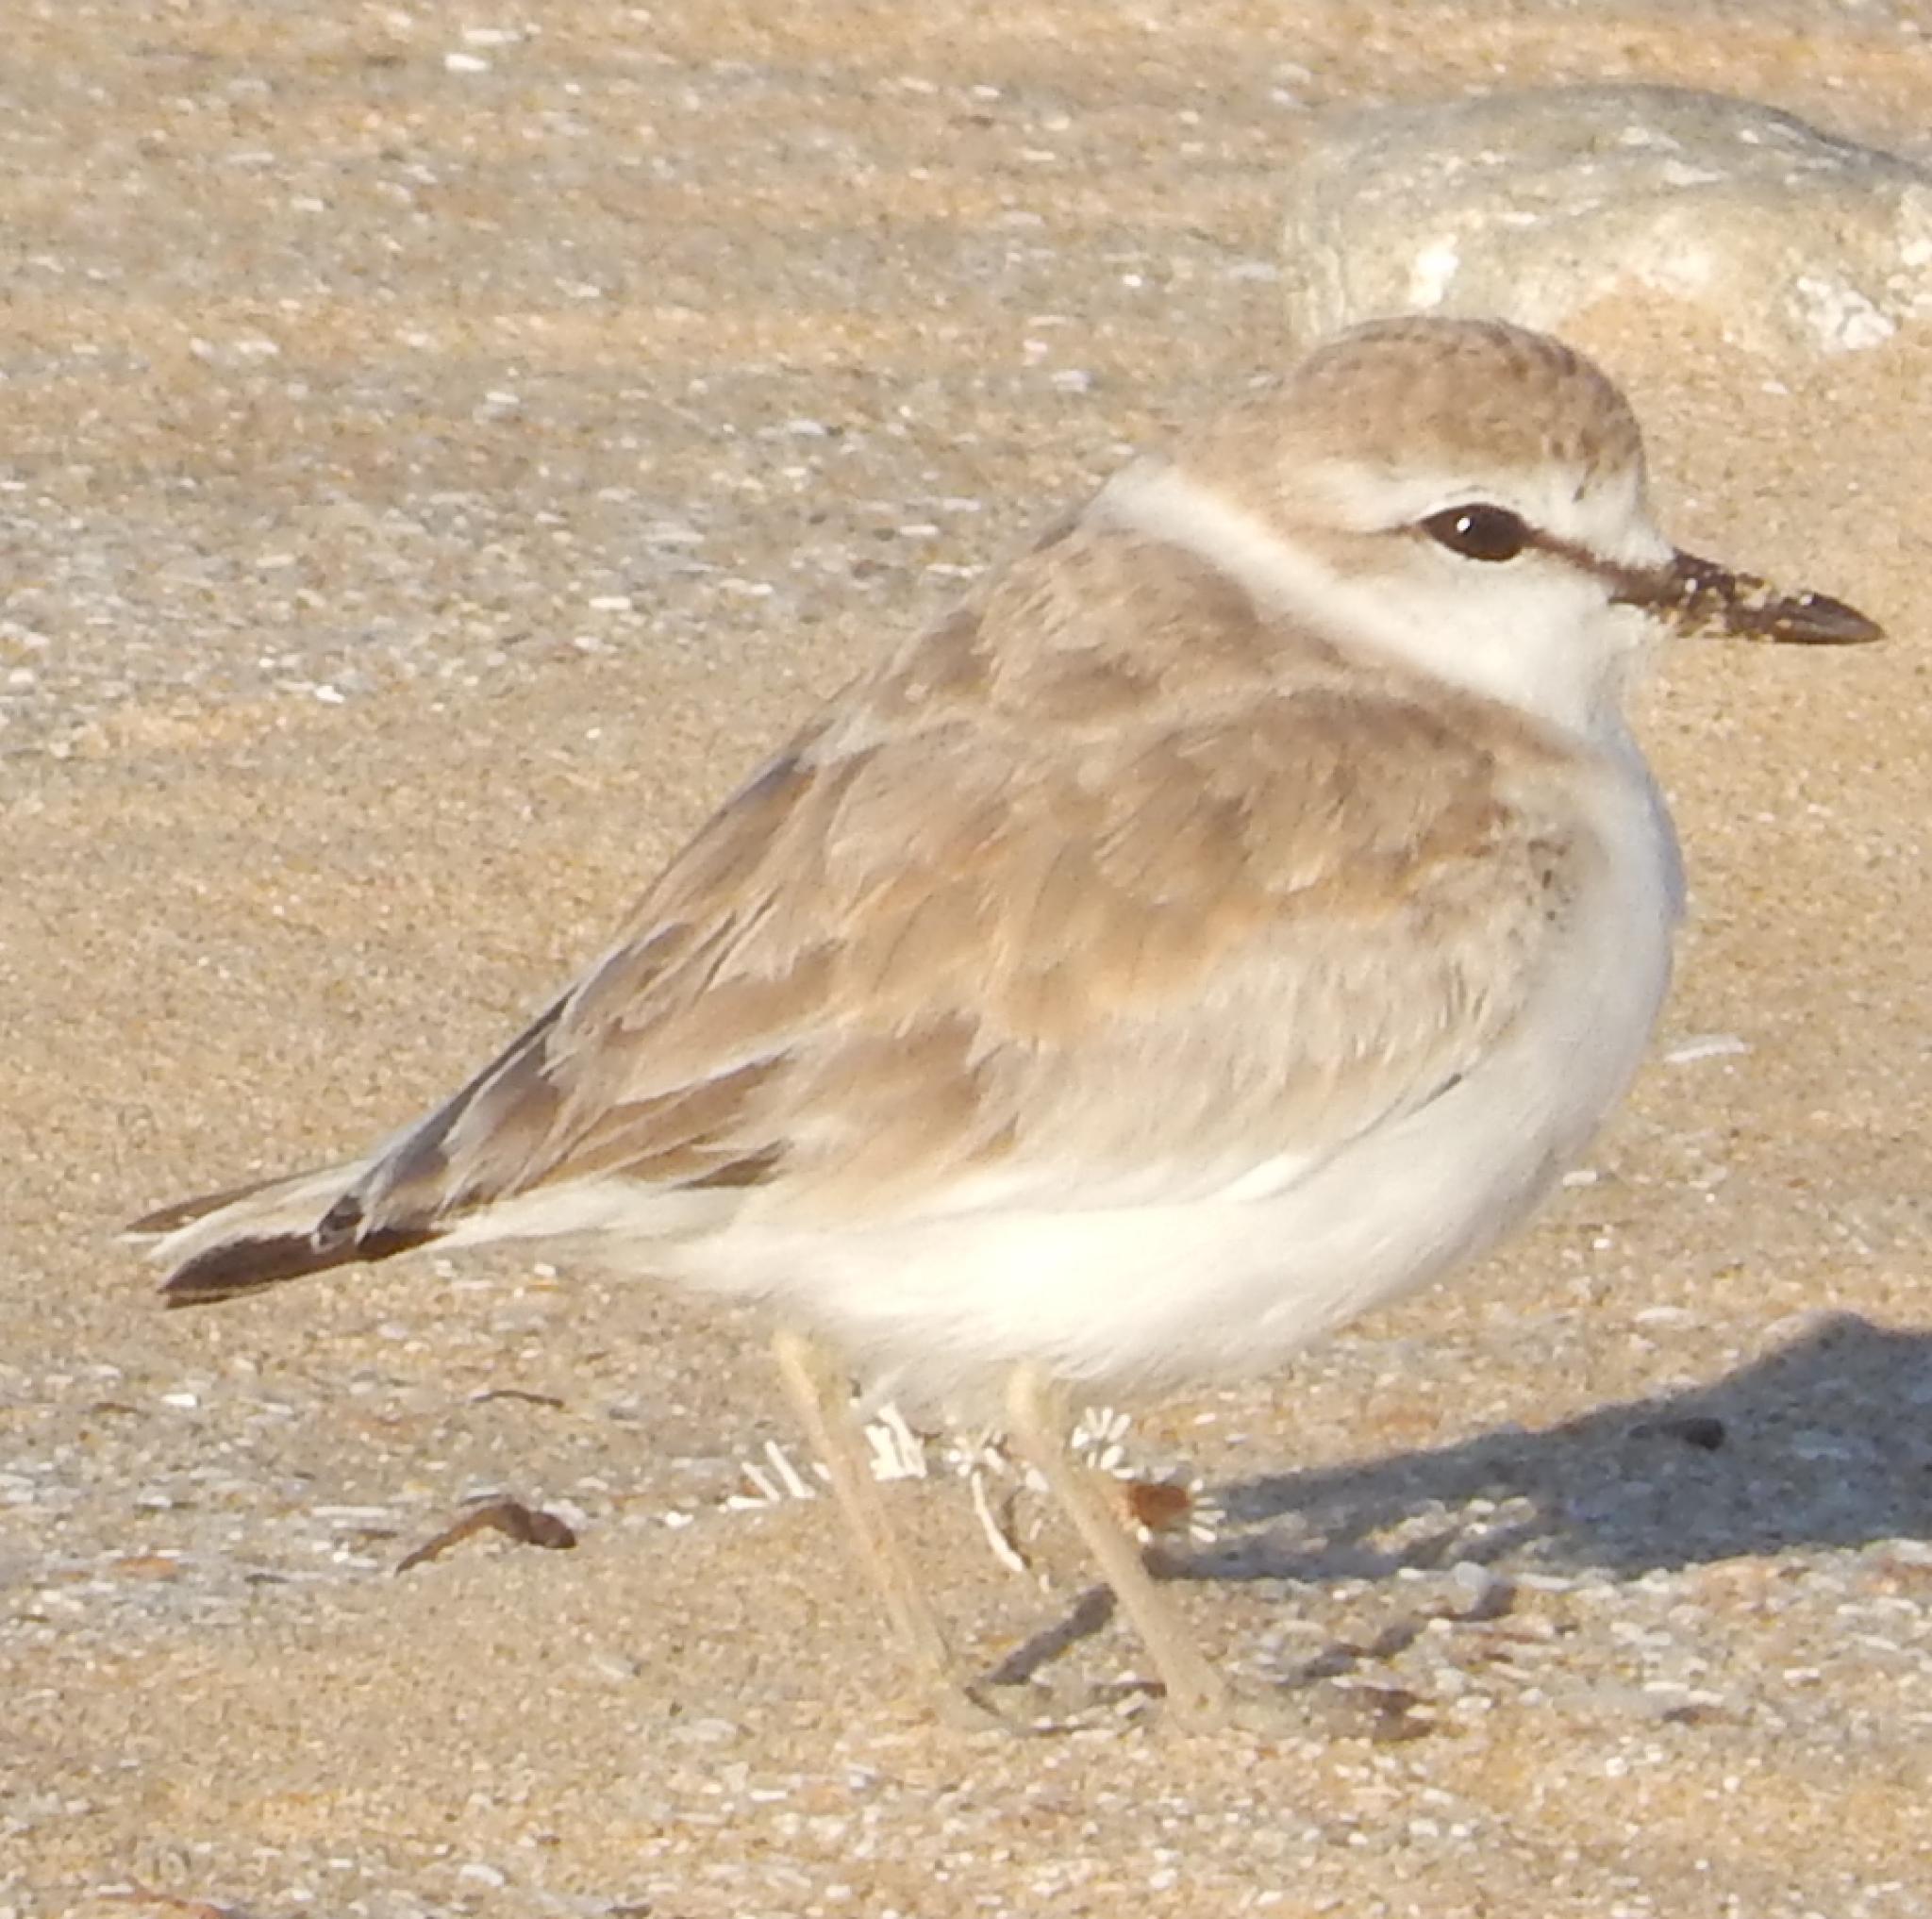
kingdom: Animalia
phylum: Chordata
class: Aves
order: Charadriiformes
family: Charadriidae
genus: Anarhynchus
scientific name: Anarhynchus
